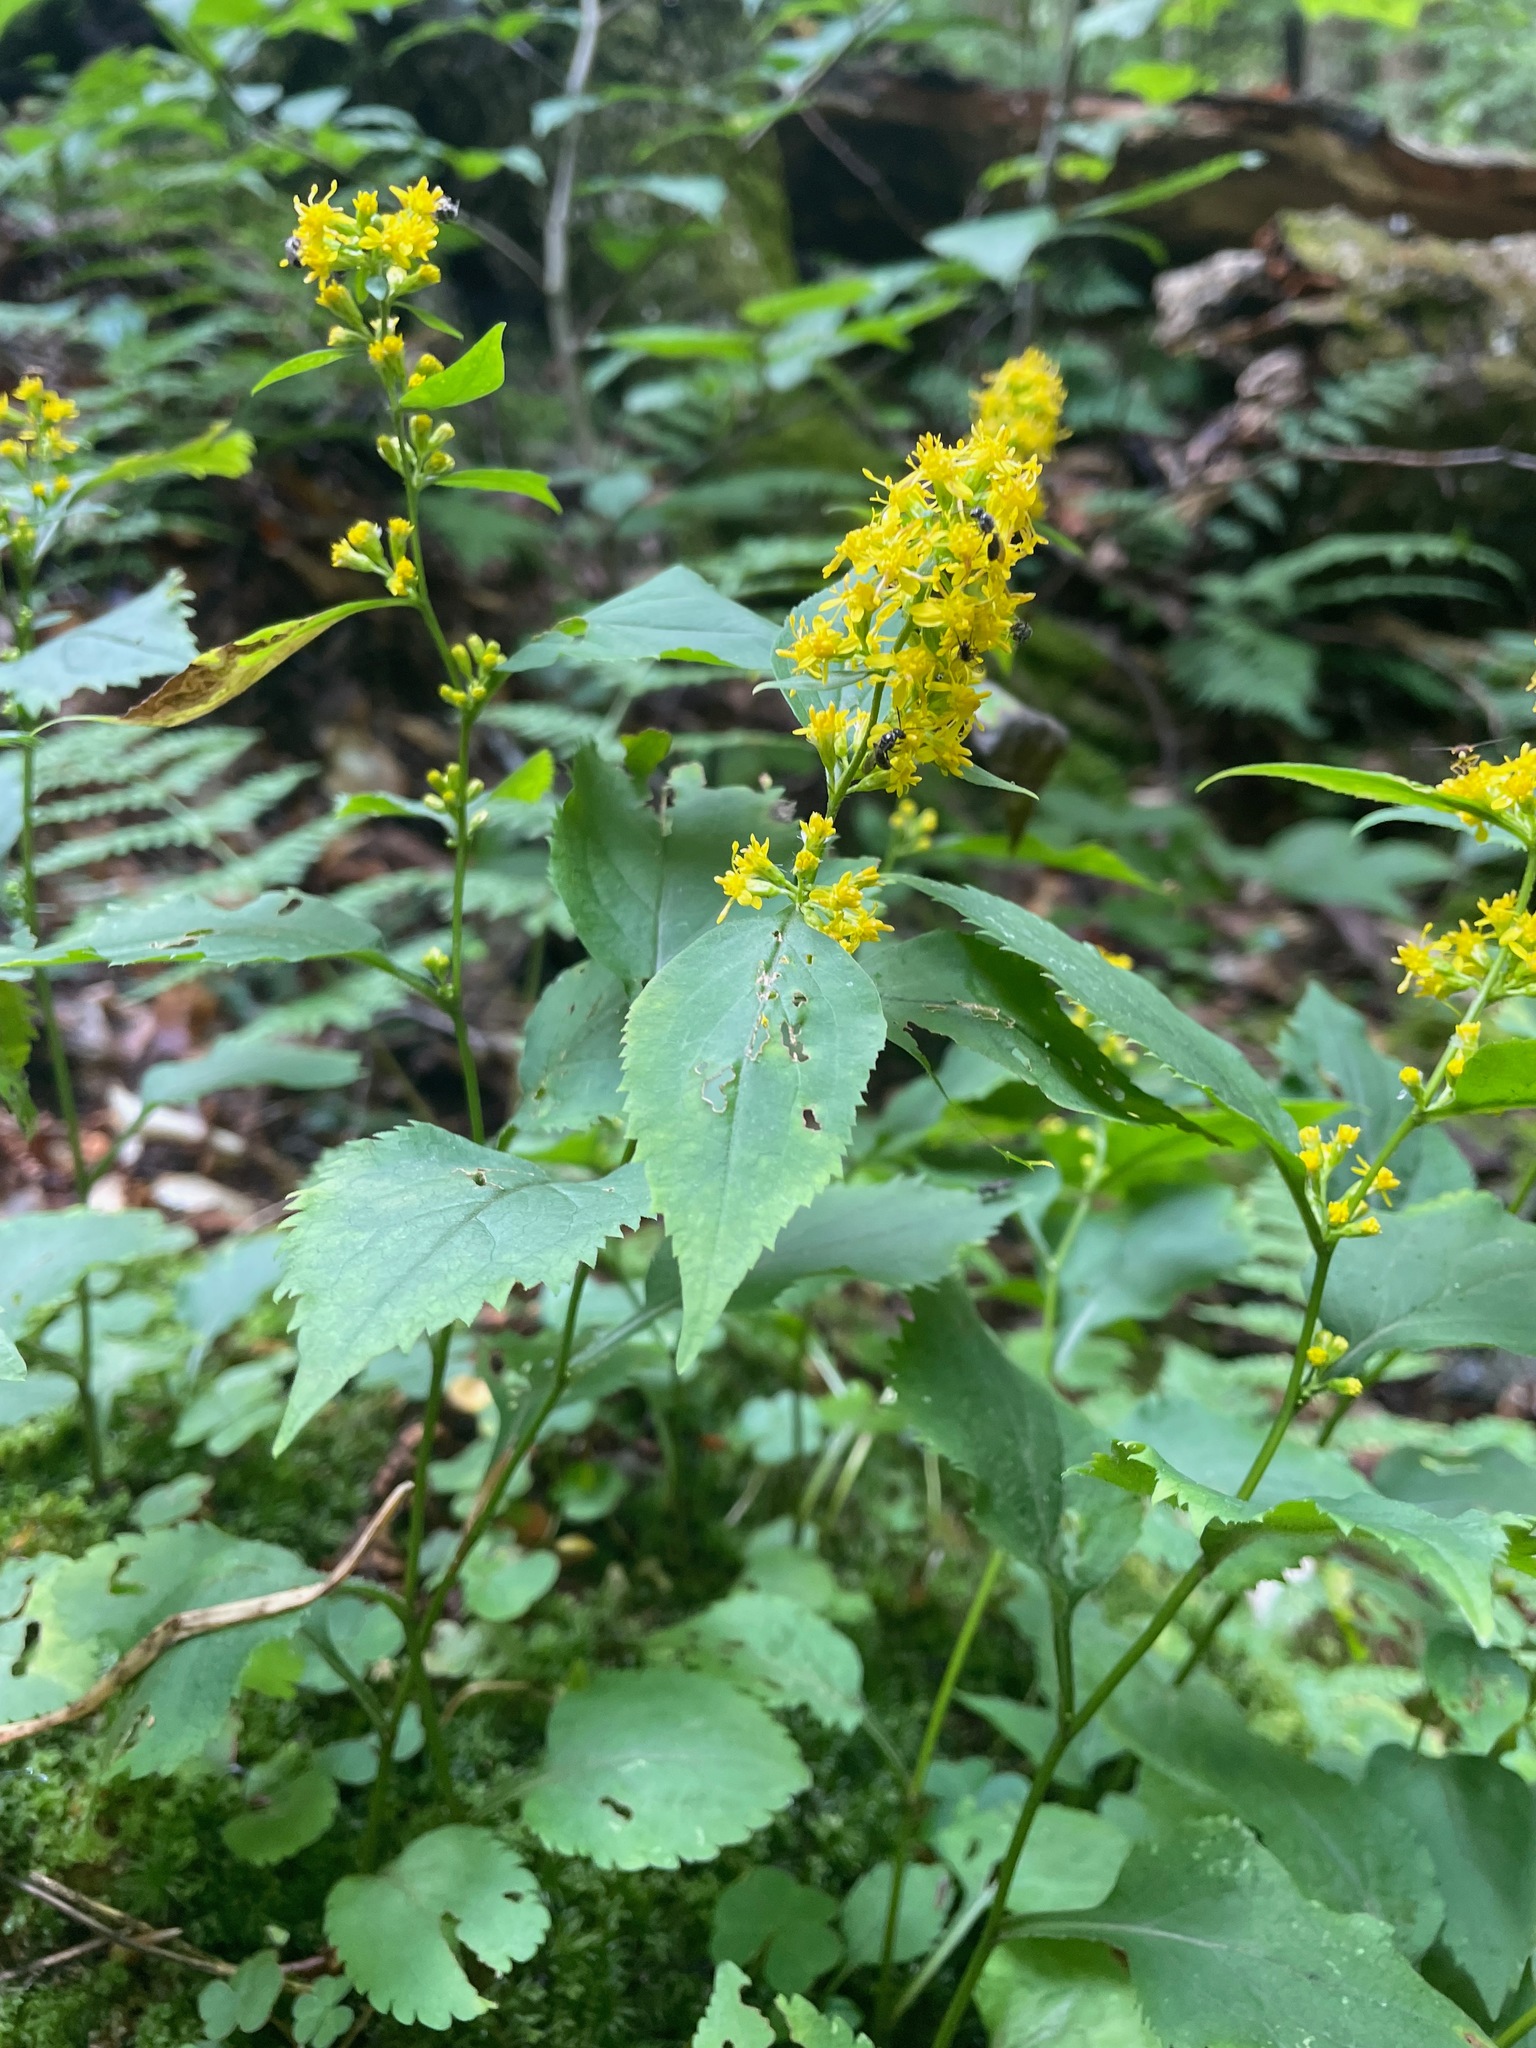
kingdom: Plantae
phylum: Tracheophyta
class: Magnoliopsida
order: Asterales
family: Asteraceae
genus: Solidago
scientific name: Solidago flexicaulis
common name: Zig-zag goldenrod
